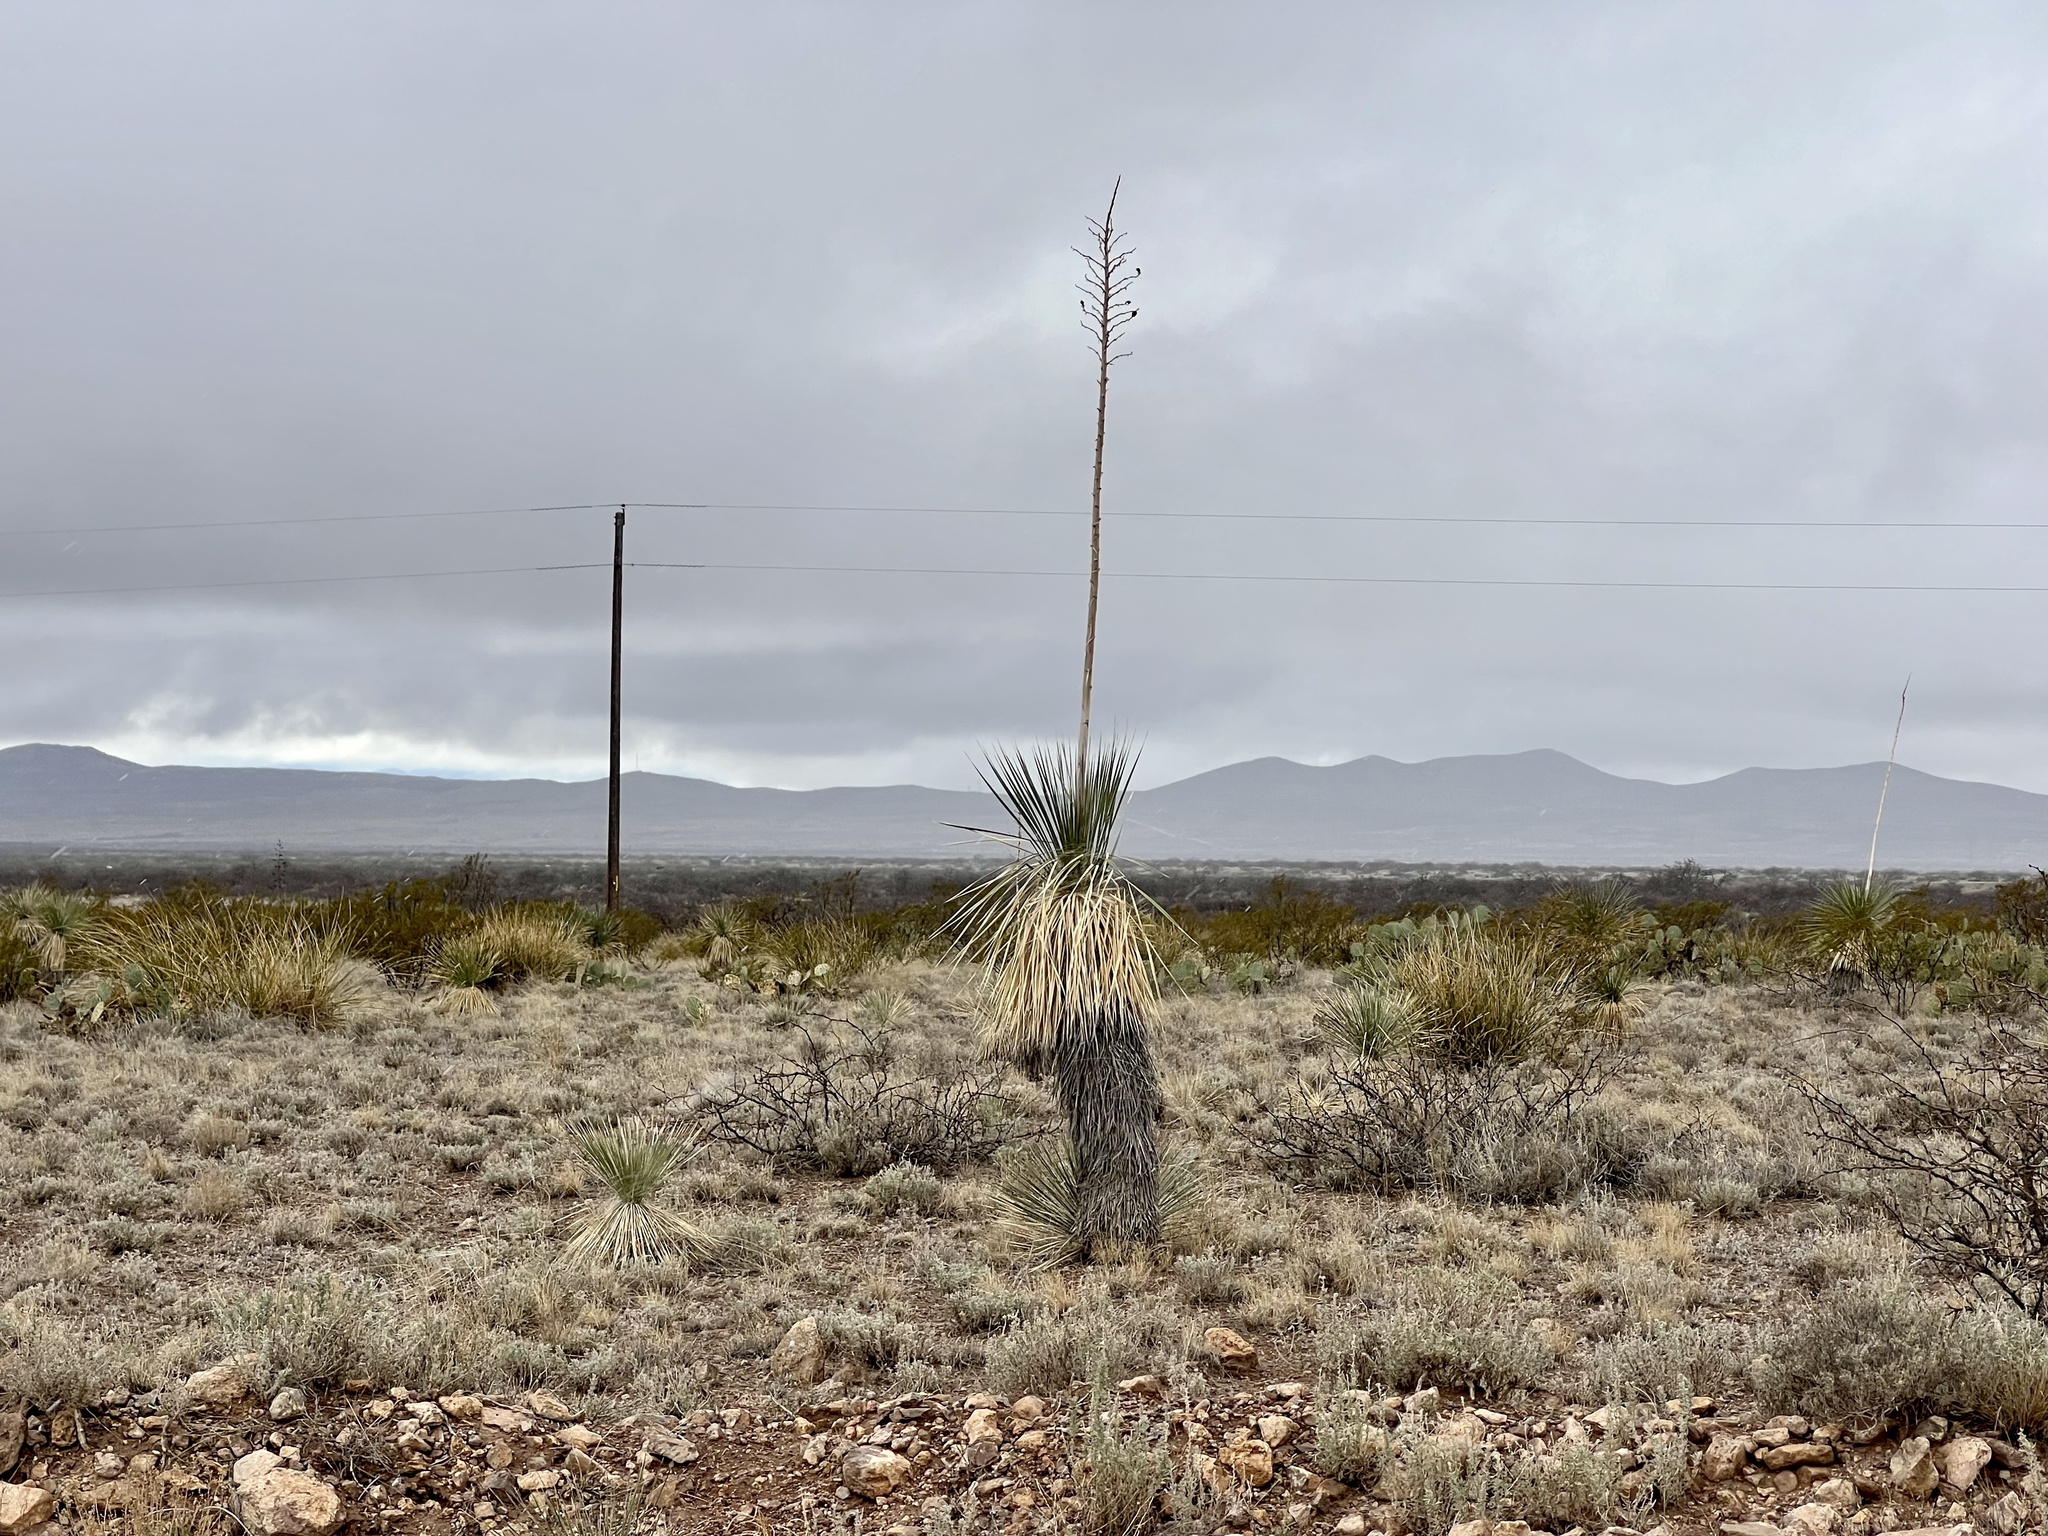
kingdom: Plantae
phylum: Tracheophyta
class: Liliopsida
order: Asparagales
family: Asparagaceae
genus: Yucca
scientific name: Yucca elata
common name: Palmella
